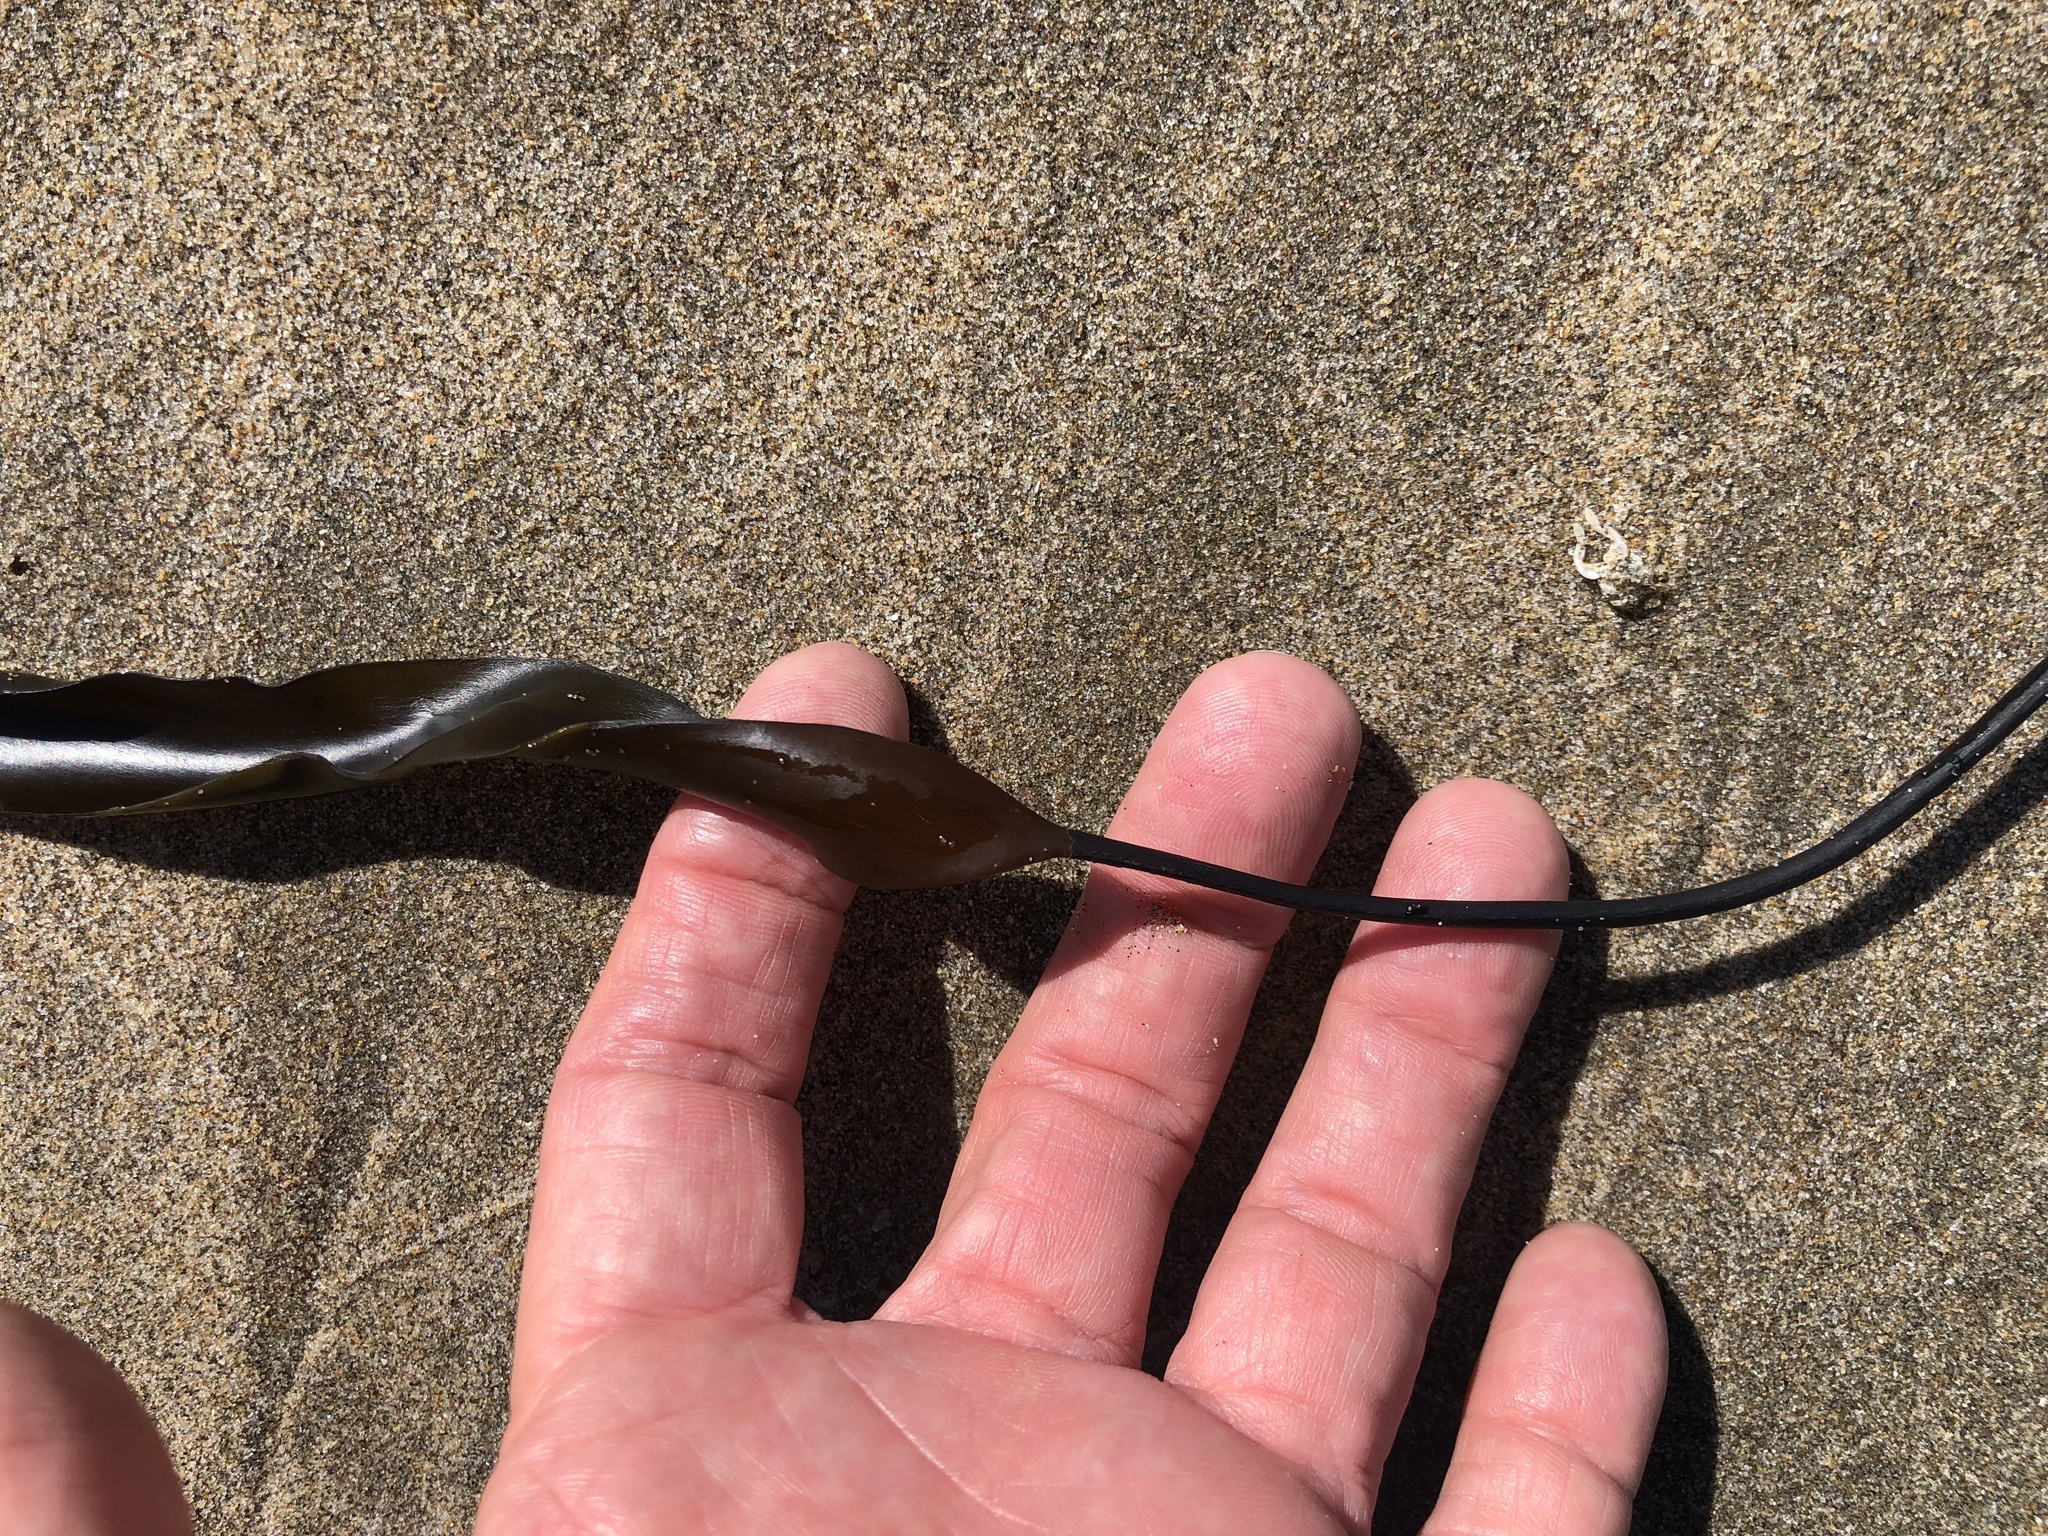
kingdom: Chromista
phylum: Ochrophyta
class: Phaeophyceae
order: Laminariales
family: Laminariaceae
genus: Laminaria
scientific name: Laminaria sinclairii
